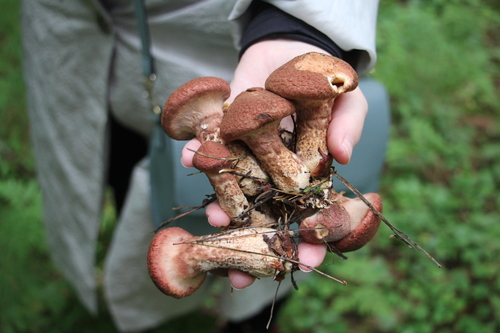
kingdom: Fungi
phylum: Basidiomycota
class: Agaricomycetes
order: Boletales
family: Suillaceae
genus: Suillus
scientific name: Suillus spraguei
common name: Painted suillus
